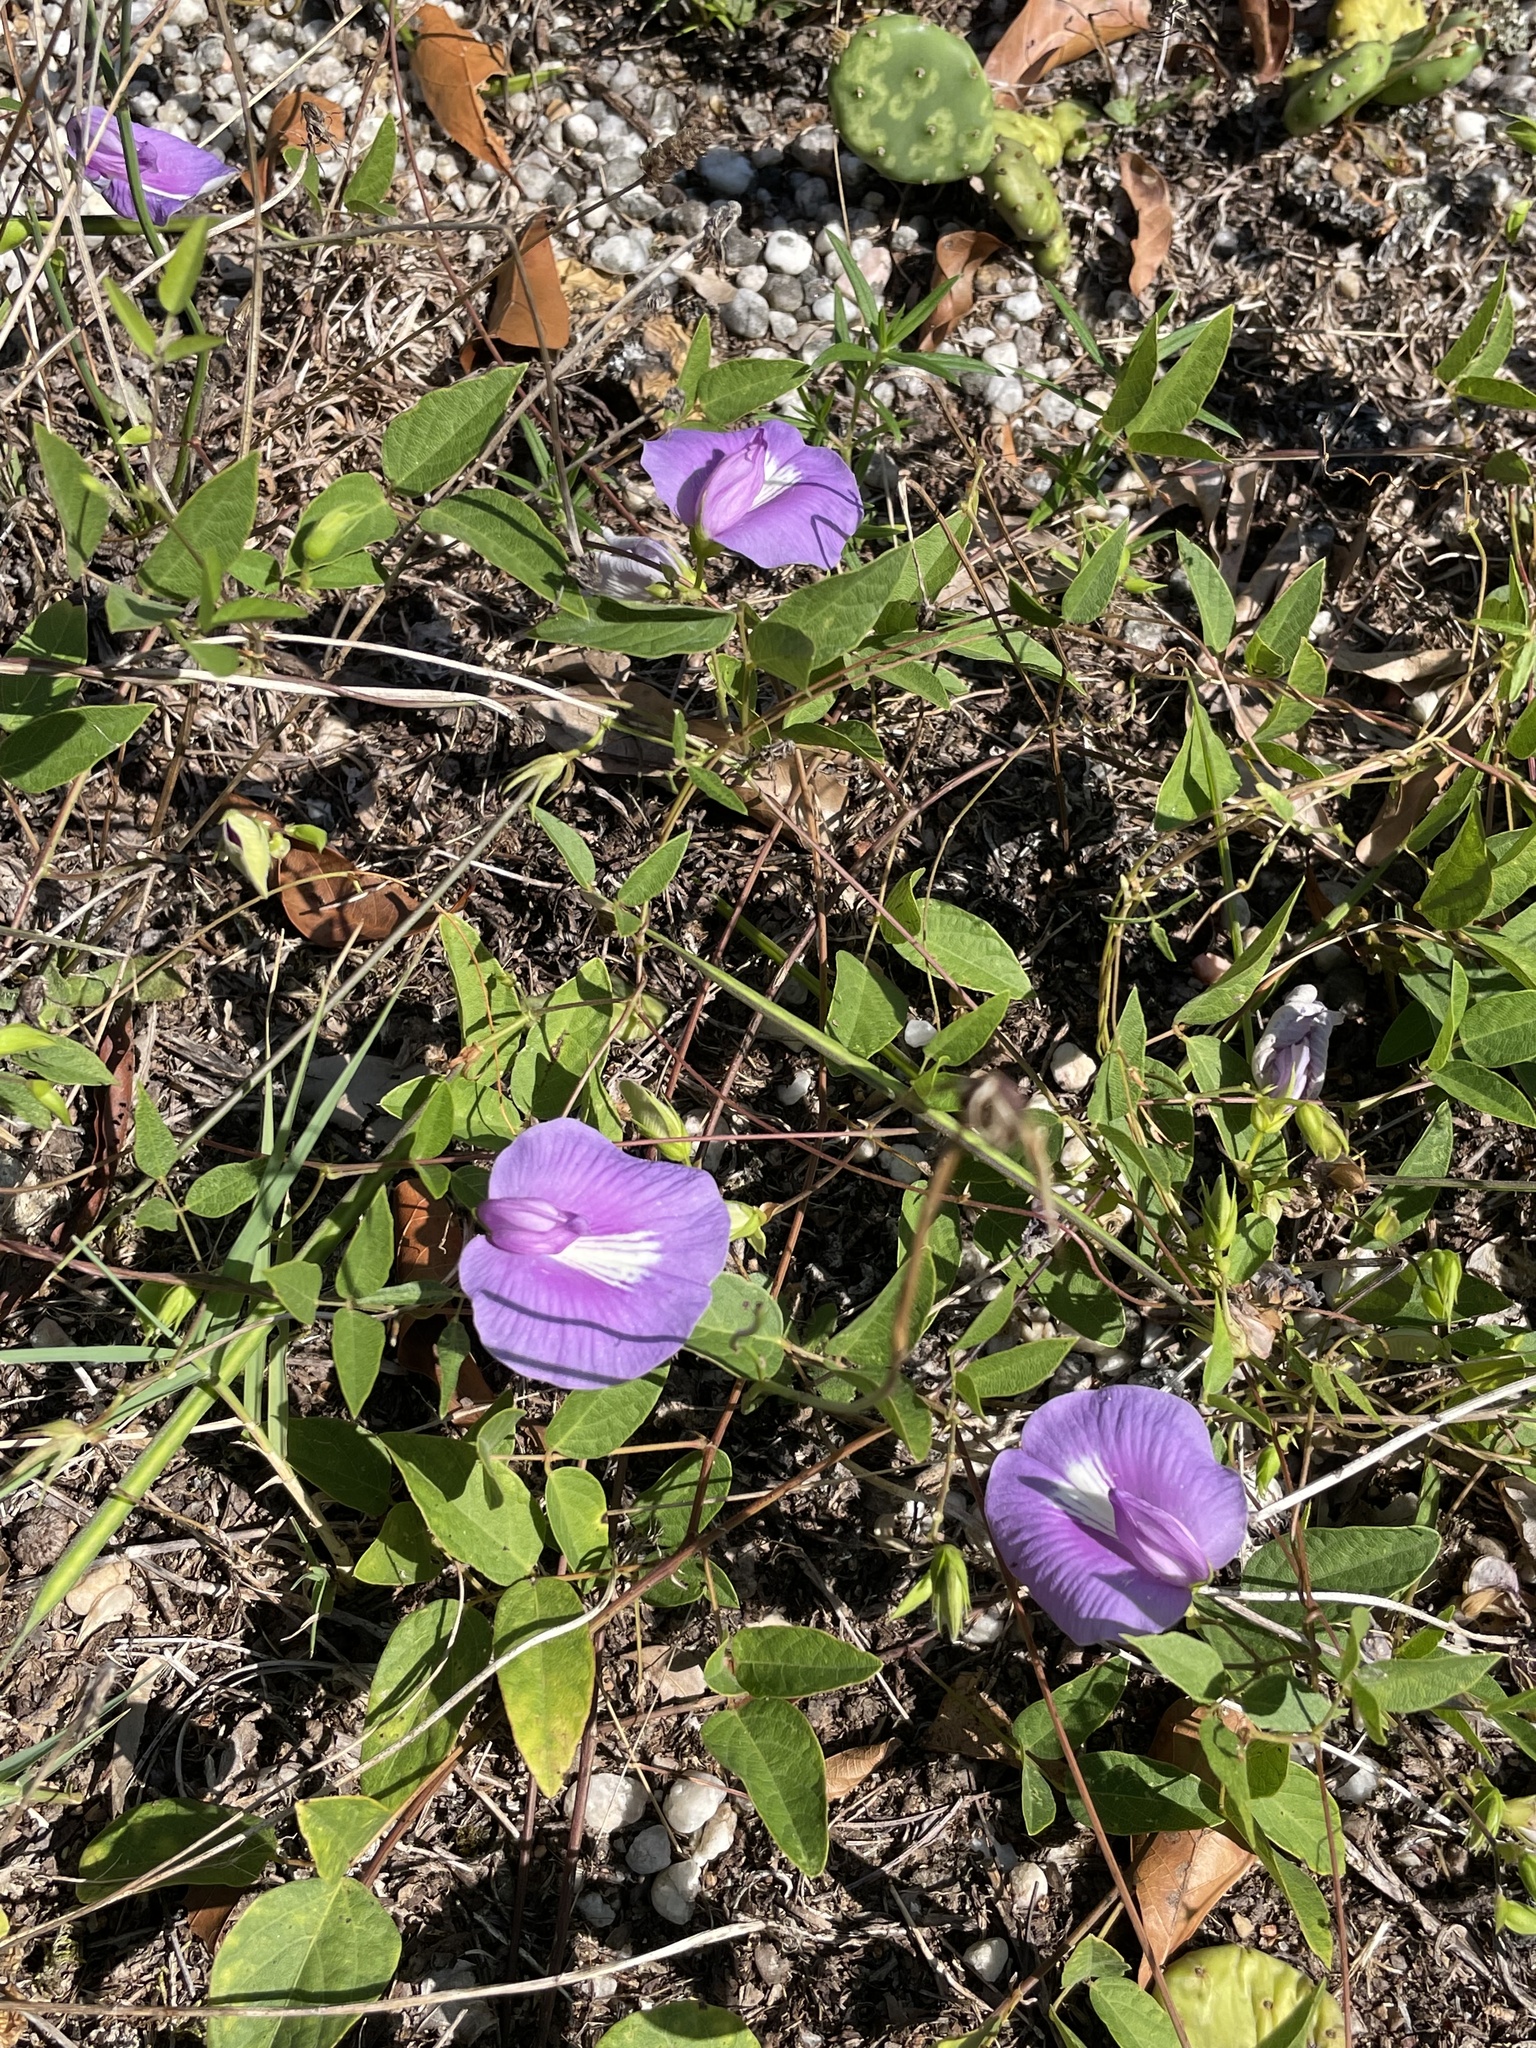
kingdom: Plantae
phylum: Tracheophyta
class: Magnoliopsida
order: Fabales
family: Fabaceae
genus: Centrosema
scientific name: Centrosema virginianum
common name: Butterfly-pea
